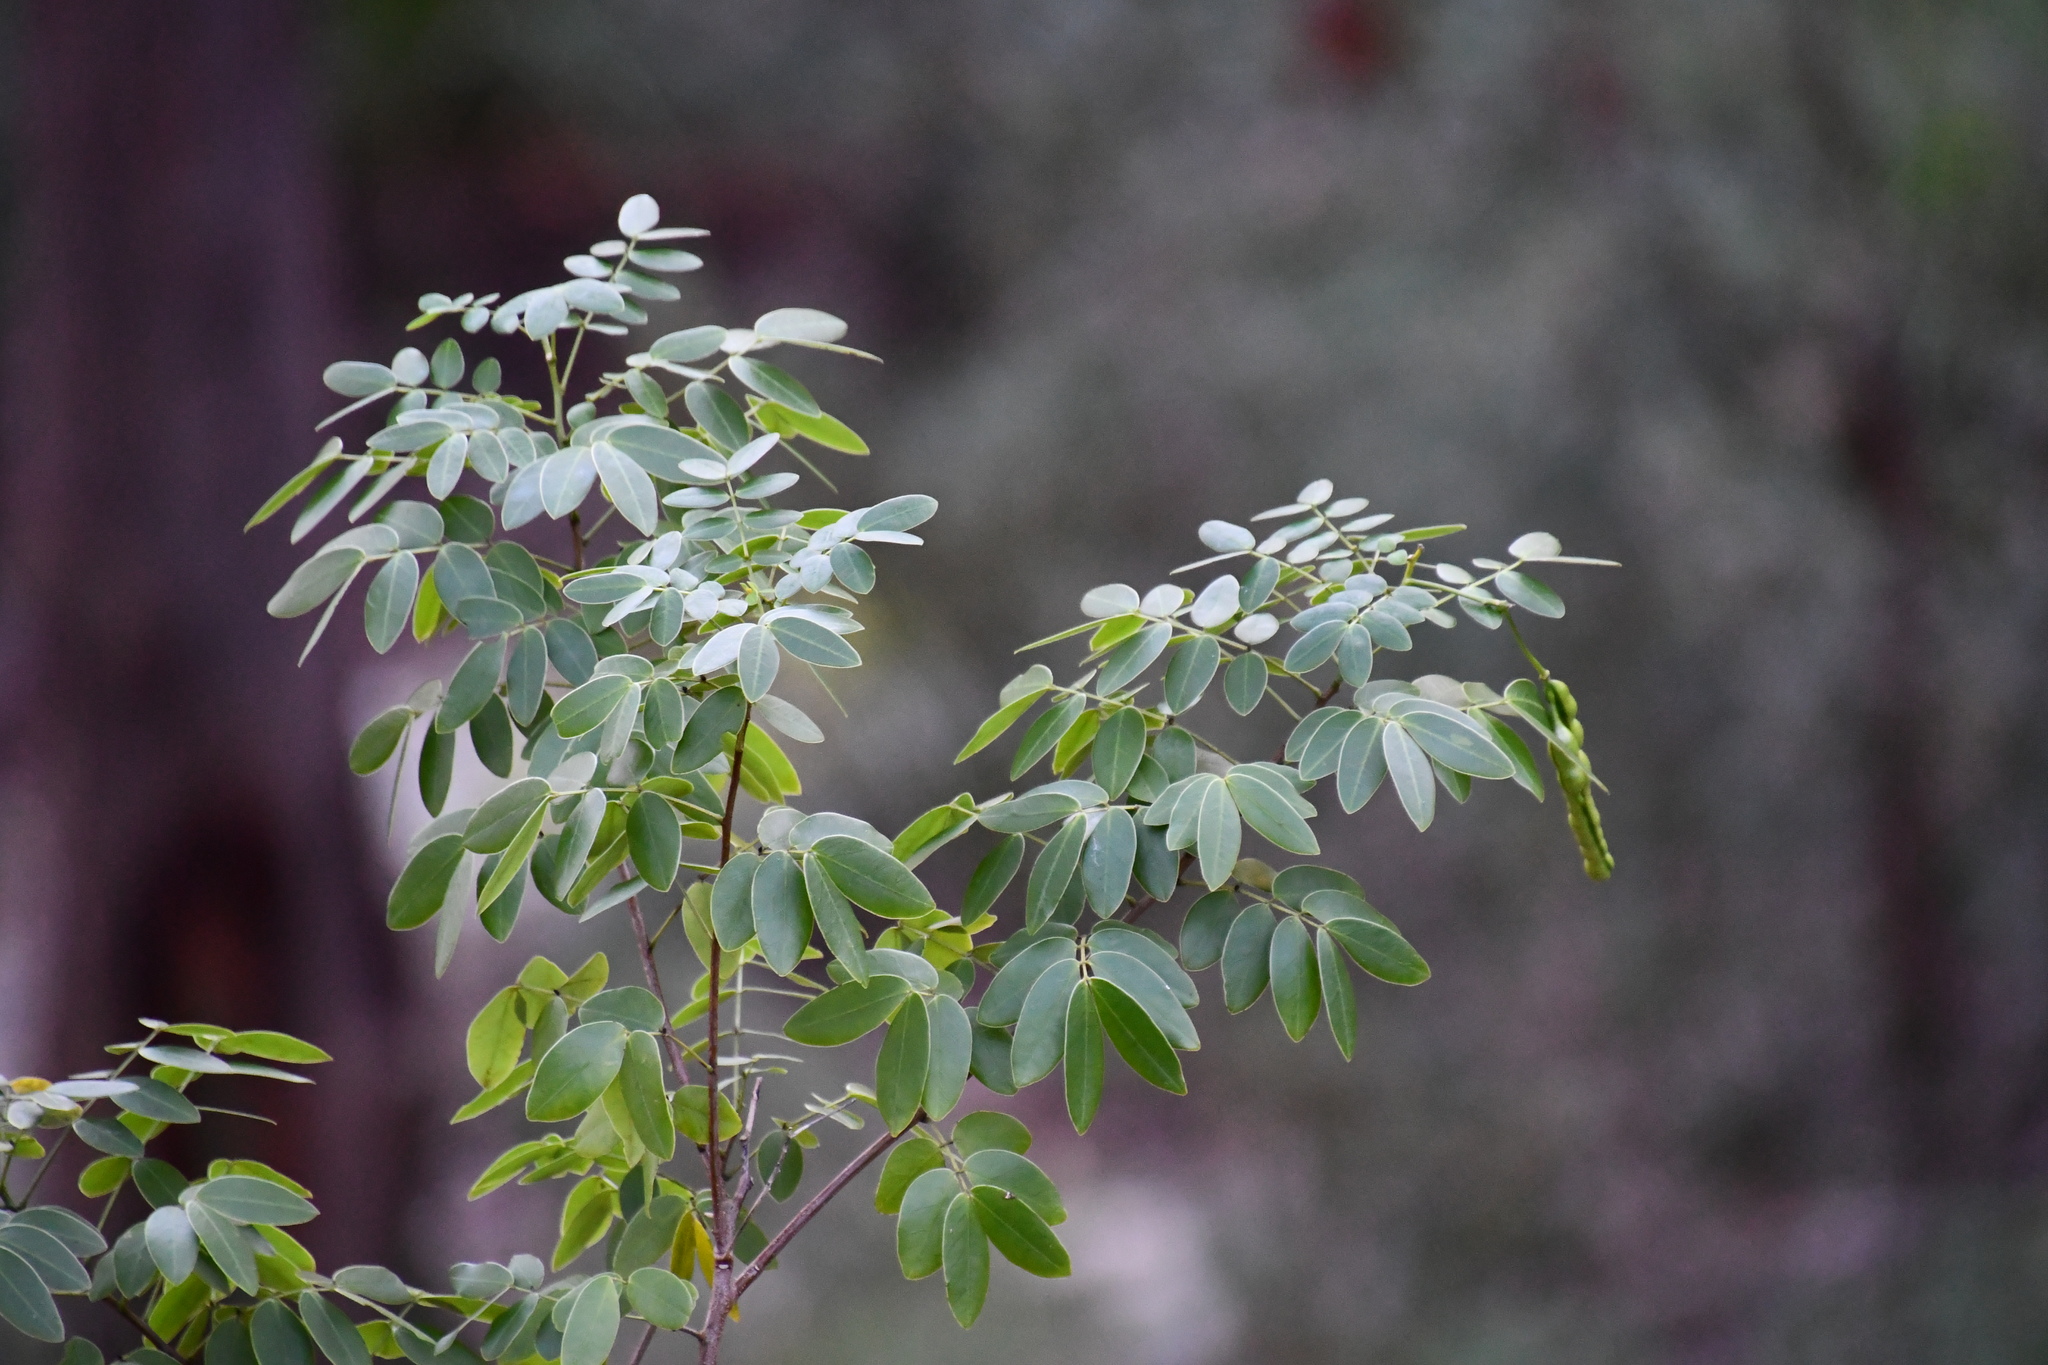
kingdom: Plantae
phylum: Tracheophyta
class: Magnoliopsida
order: Fabales
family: Fabaceae
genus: Senna
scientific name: Senna pendula
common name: Easter cassia
